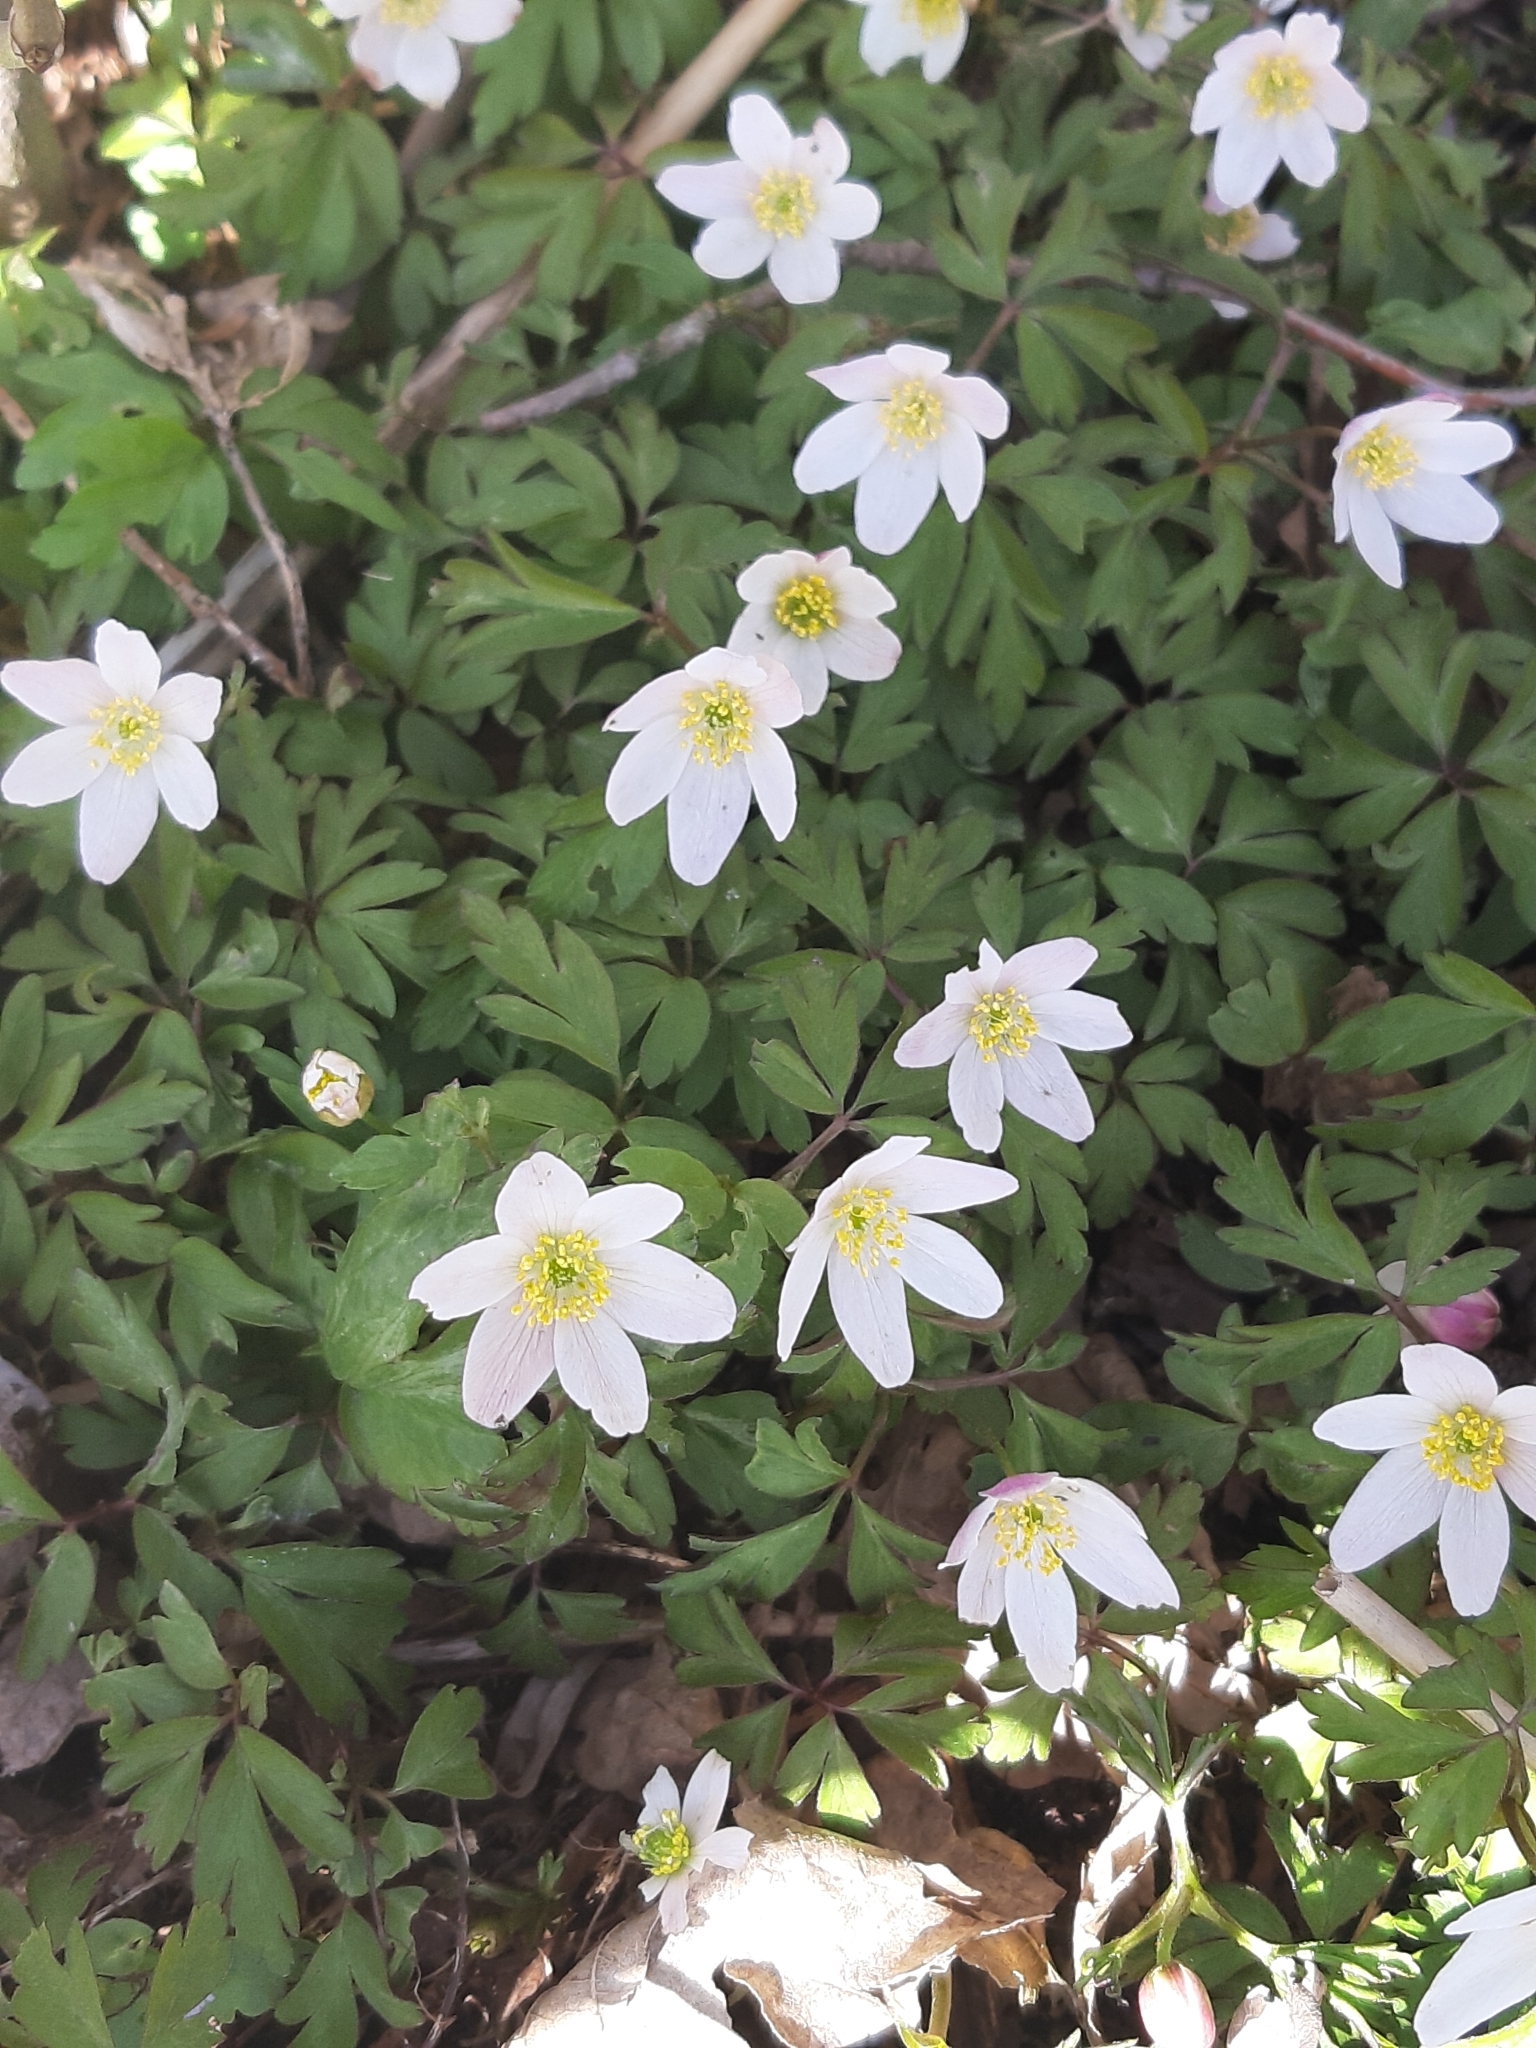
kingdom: Plantae
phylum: Tracheophyta
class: Magnoliopsida
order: Ranunculales
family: Ranunculaceae
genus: Anemone
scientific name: Anemone nemorosa
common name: Wood anemone
